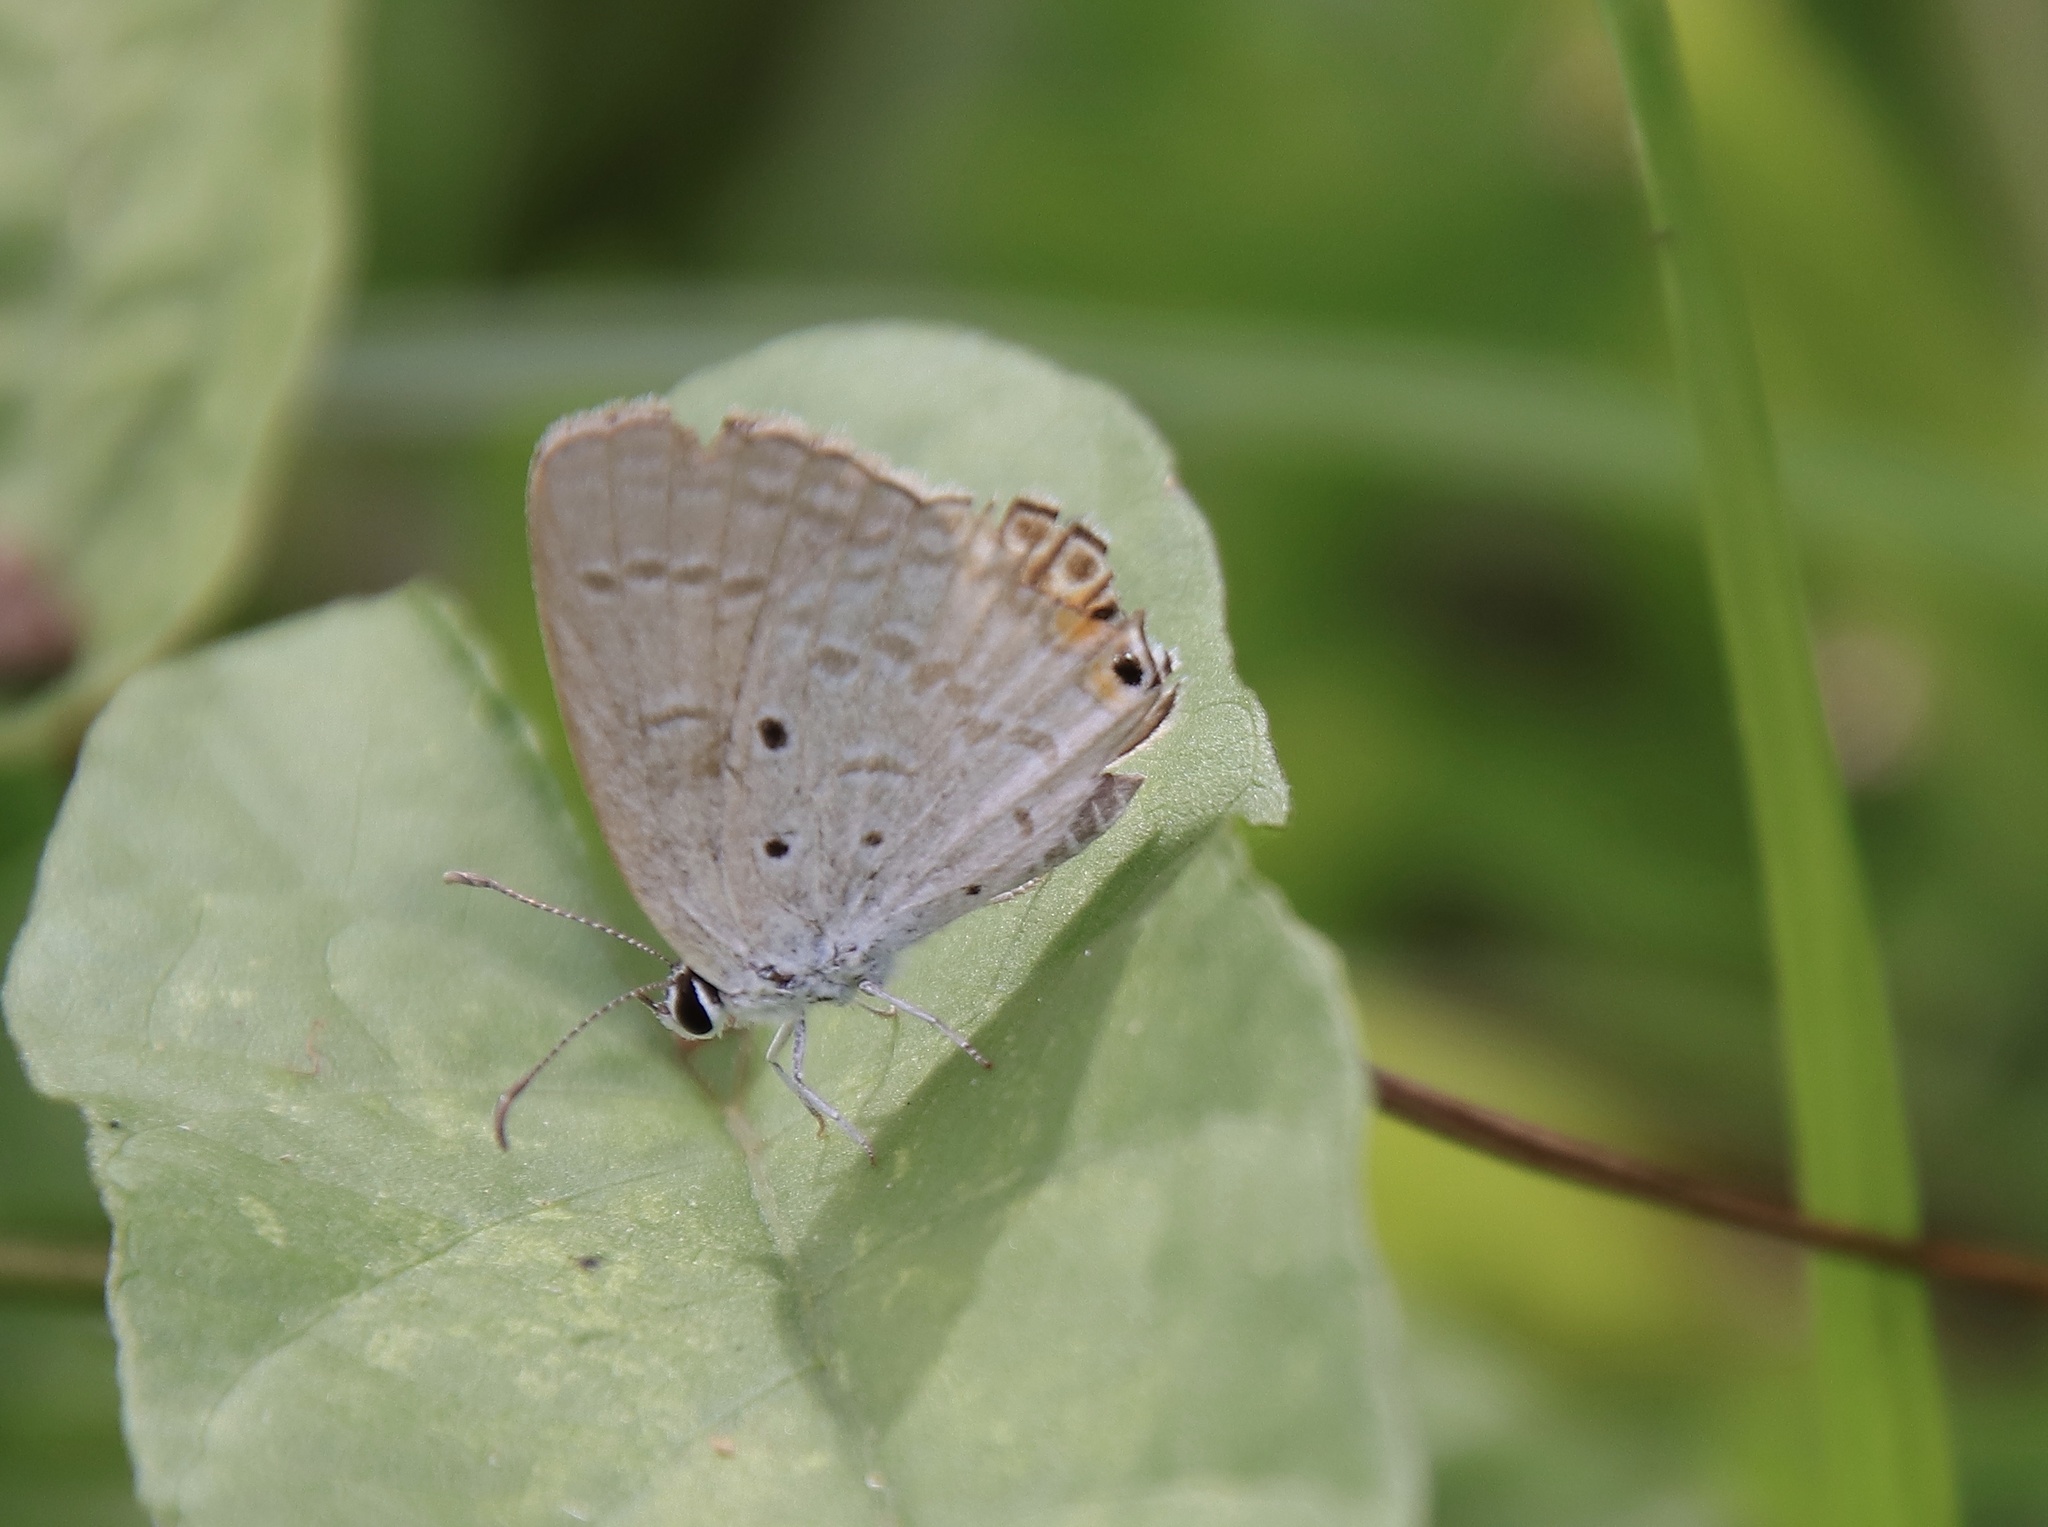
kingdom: Animalia
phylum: Arthropoda
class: Insecta
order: Lepidoptera
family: Lycaenidae
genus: Euchrysops
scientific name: Euchrysops cnejus
